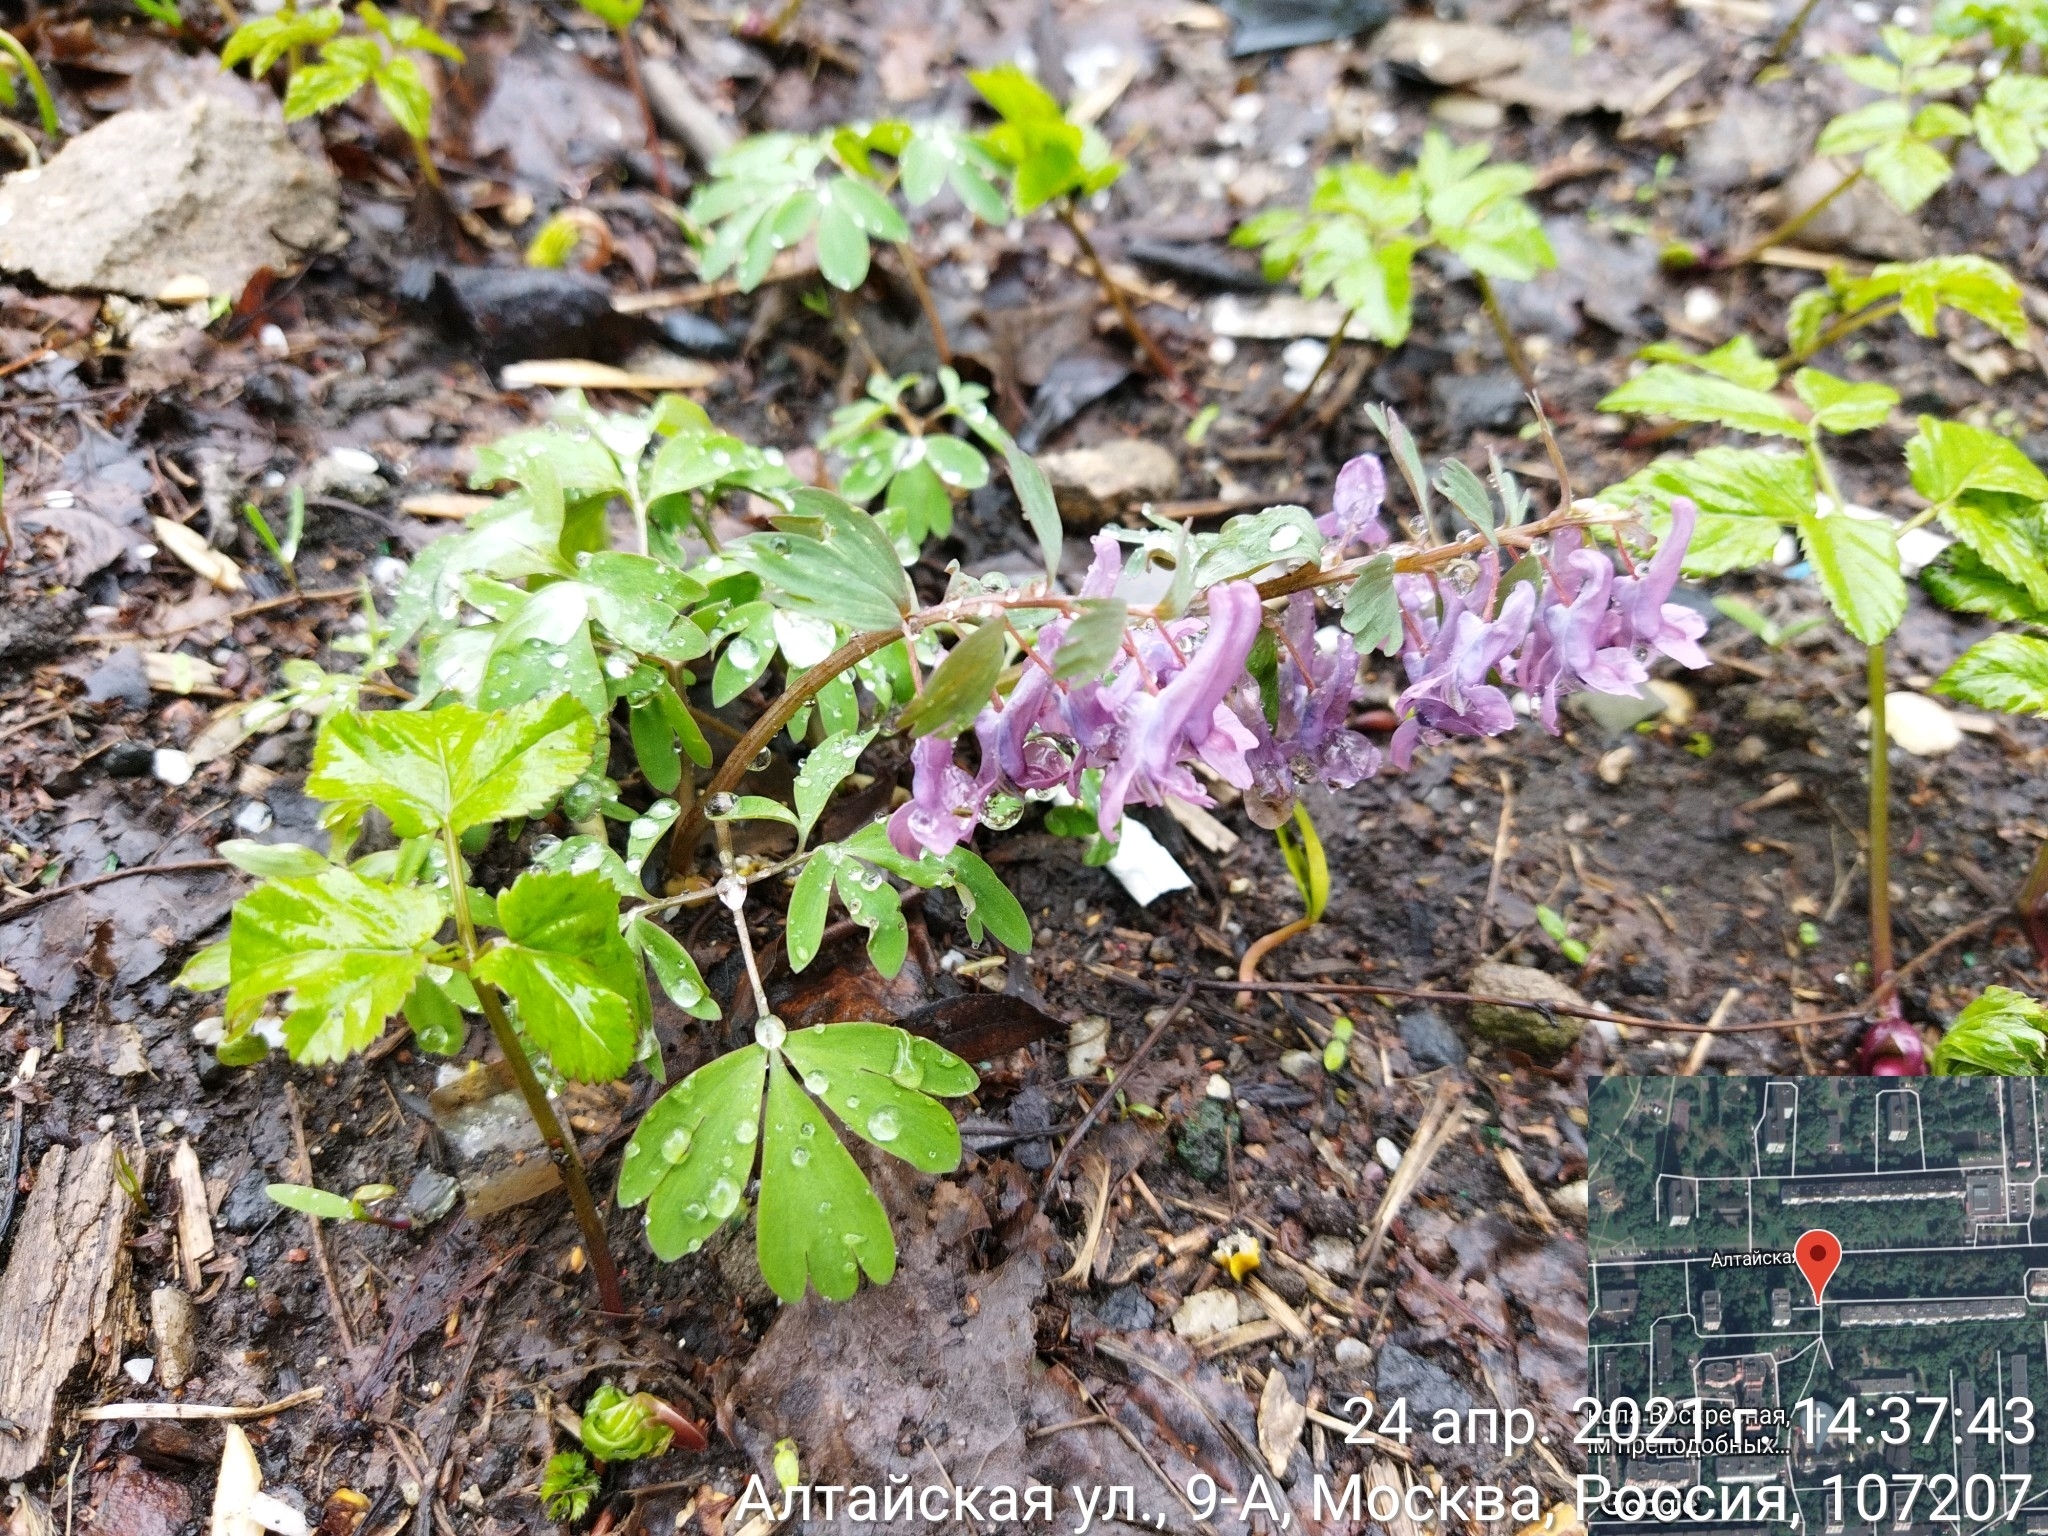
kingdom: Plantae
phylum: Tracheophyta
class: Magnoliopsida
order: Ranunculales
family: Papaveraceae
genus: Corydalis
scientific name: Corydalis solida
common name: Bird-in-a-bush
